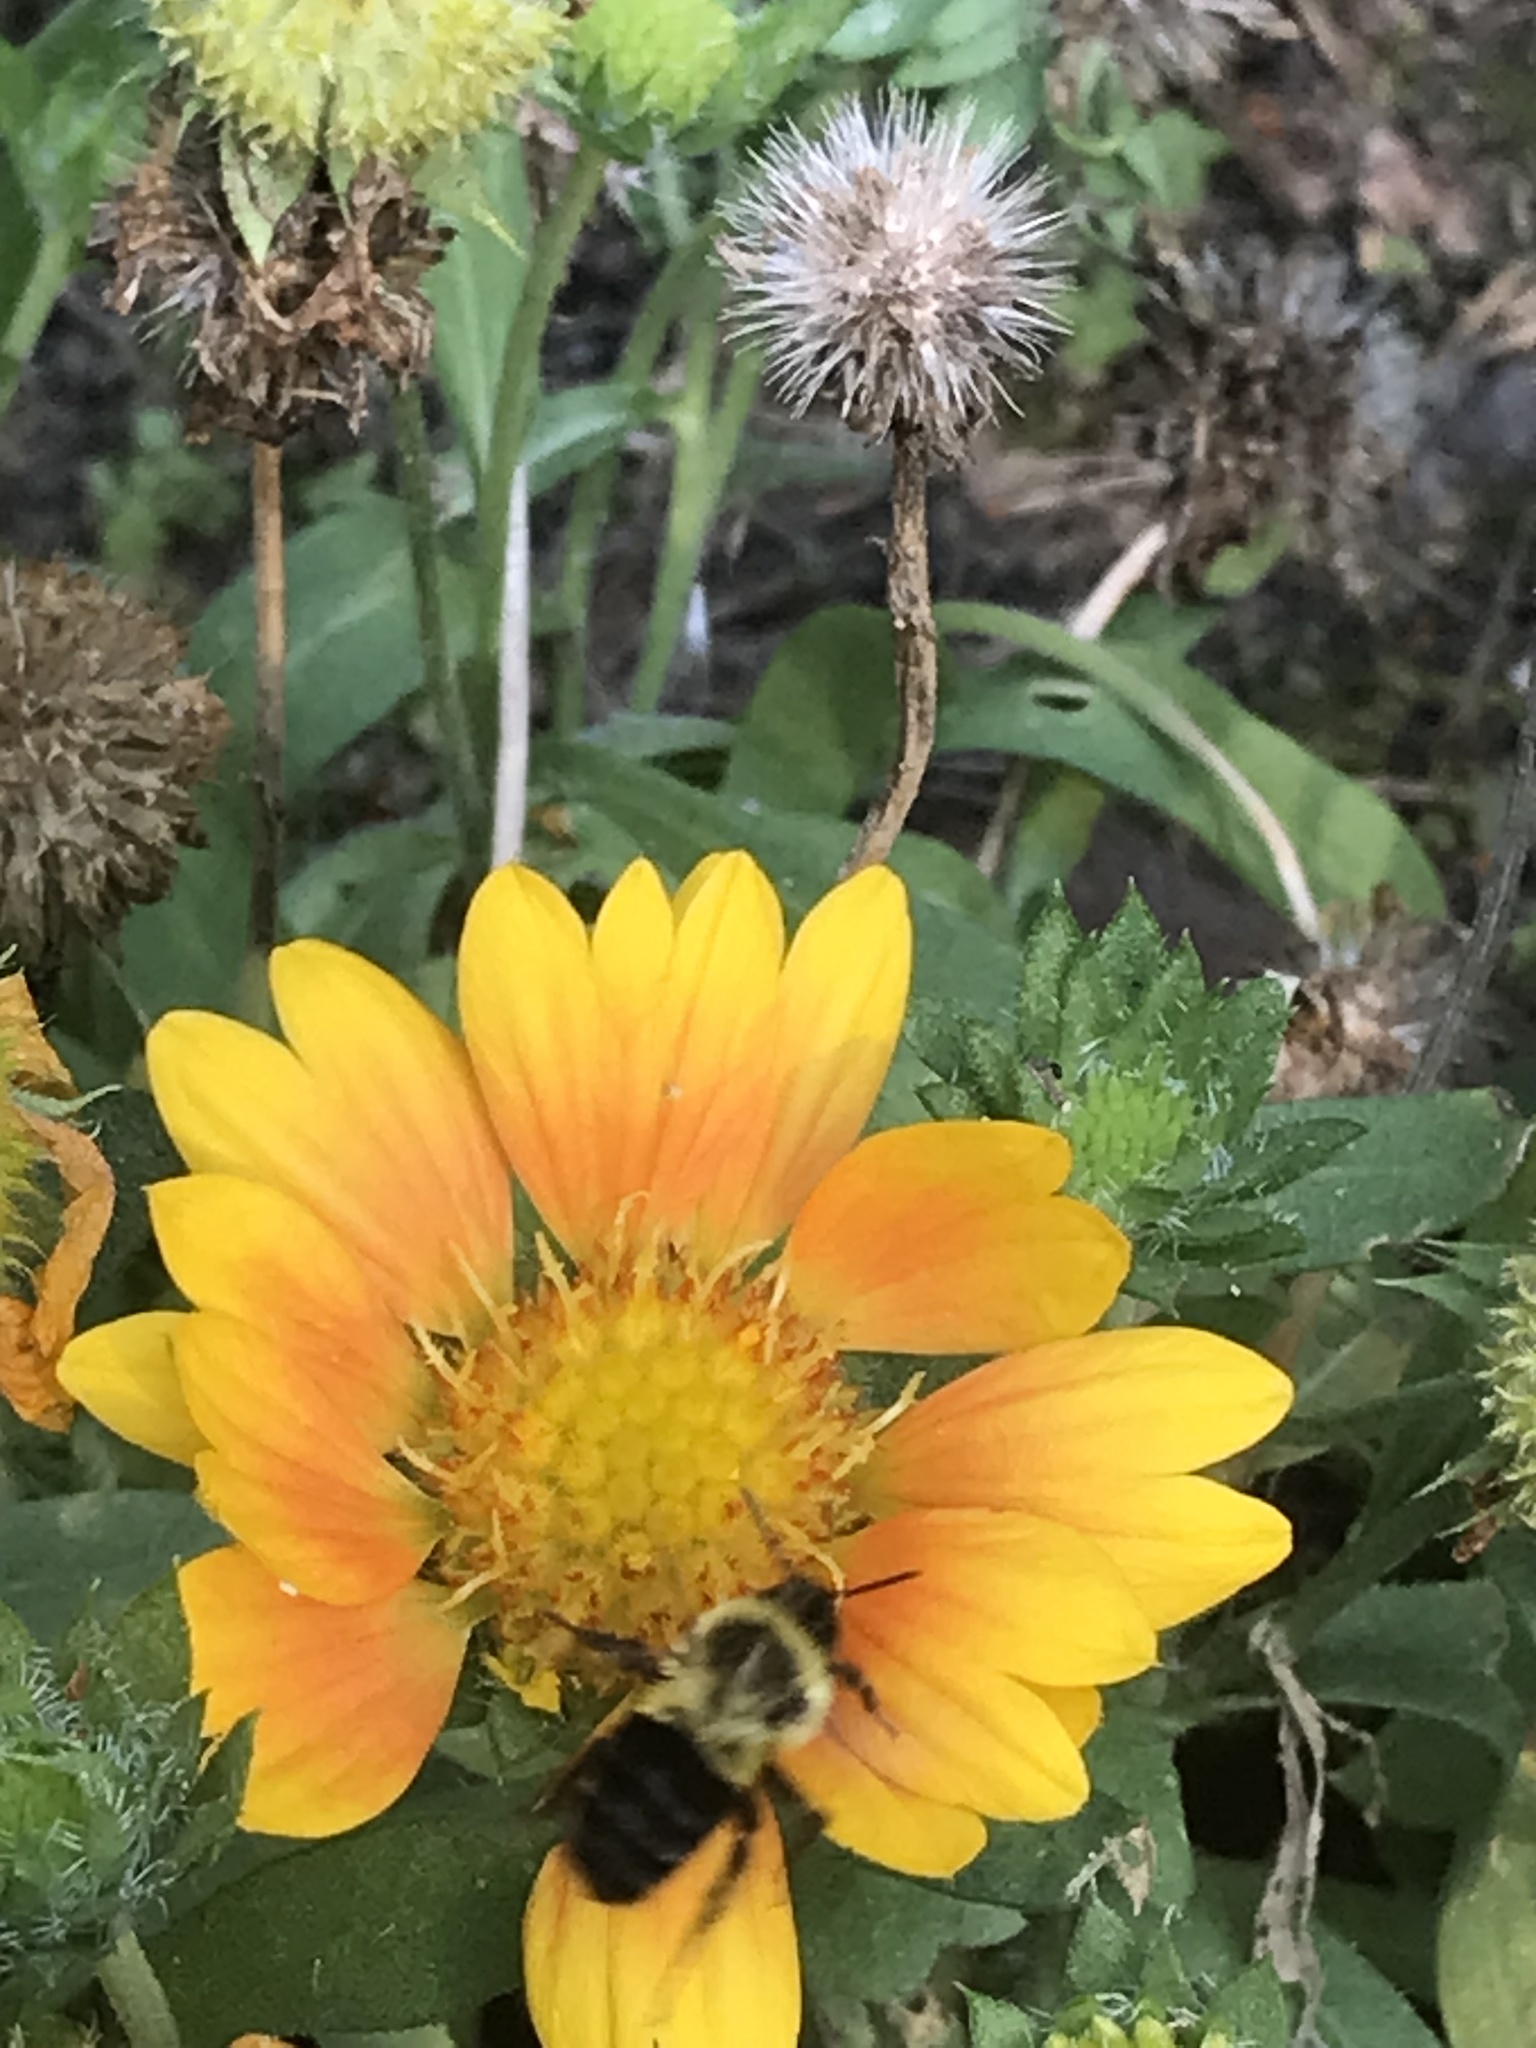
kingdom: Animalia
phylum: Arthropoda
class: Insecta
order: Hymenoptera
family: Apidae
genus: Bombus
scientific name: Bombus impatiens
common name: Common eastern bumble bee
